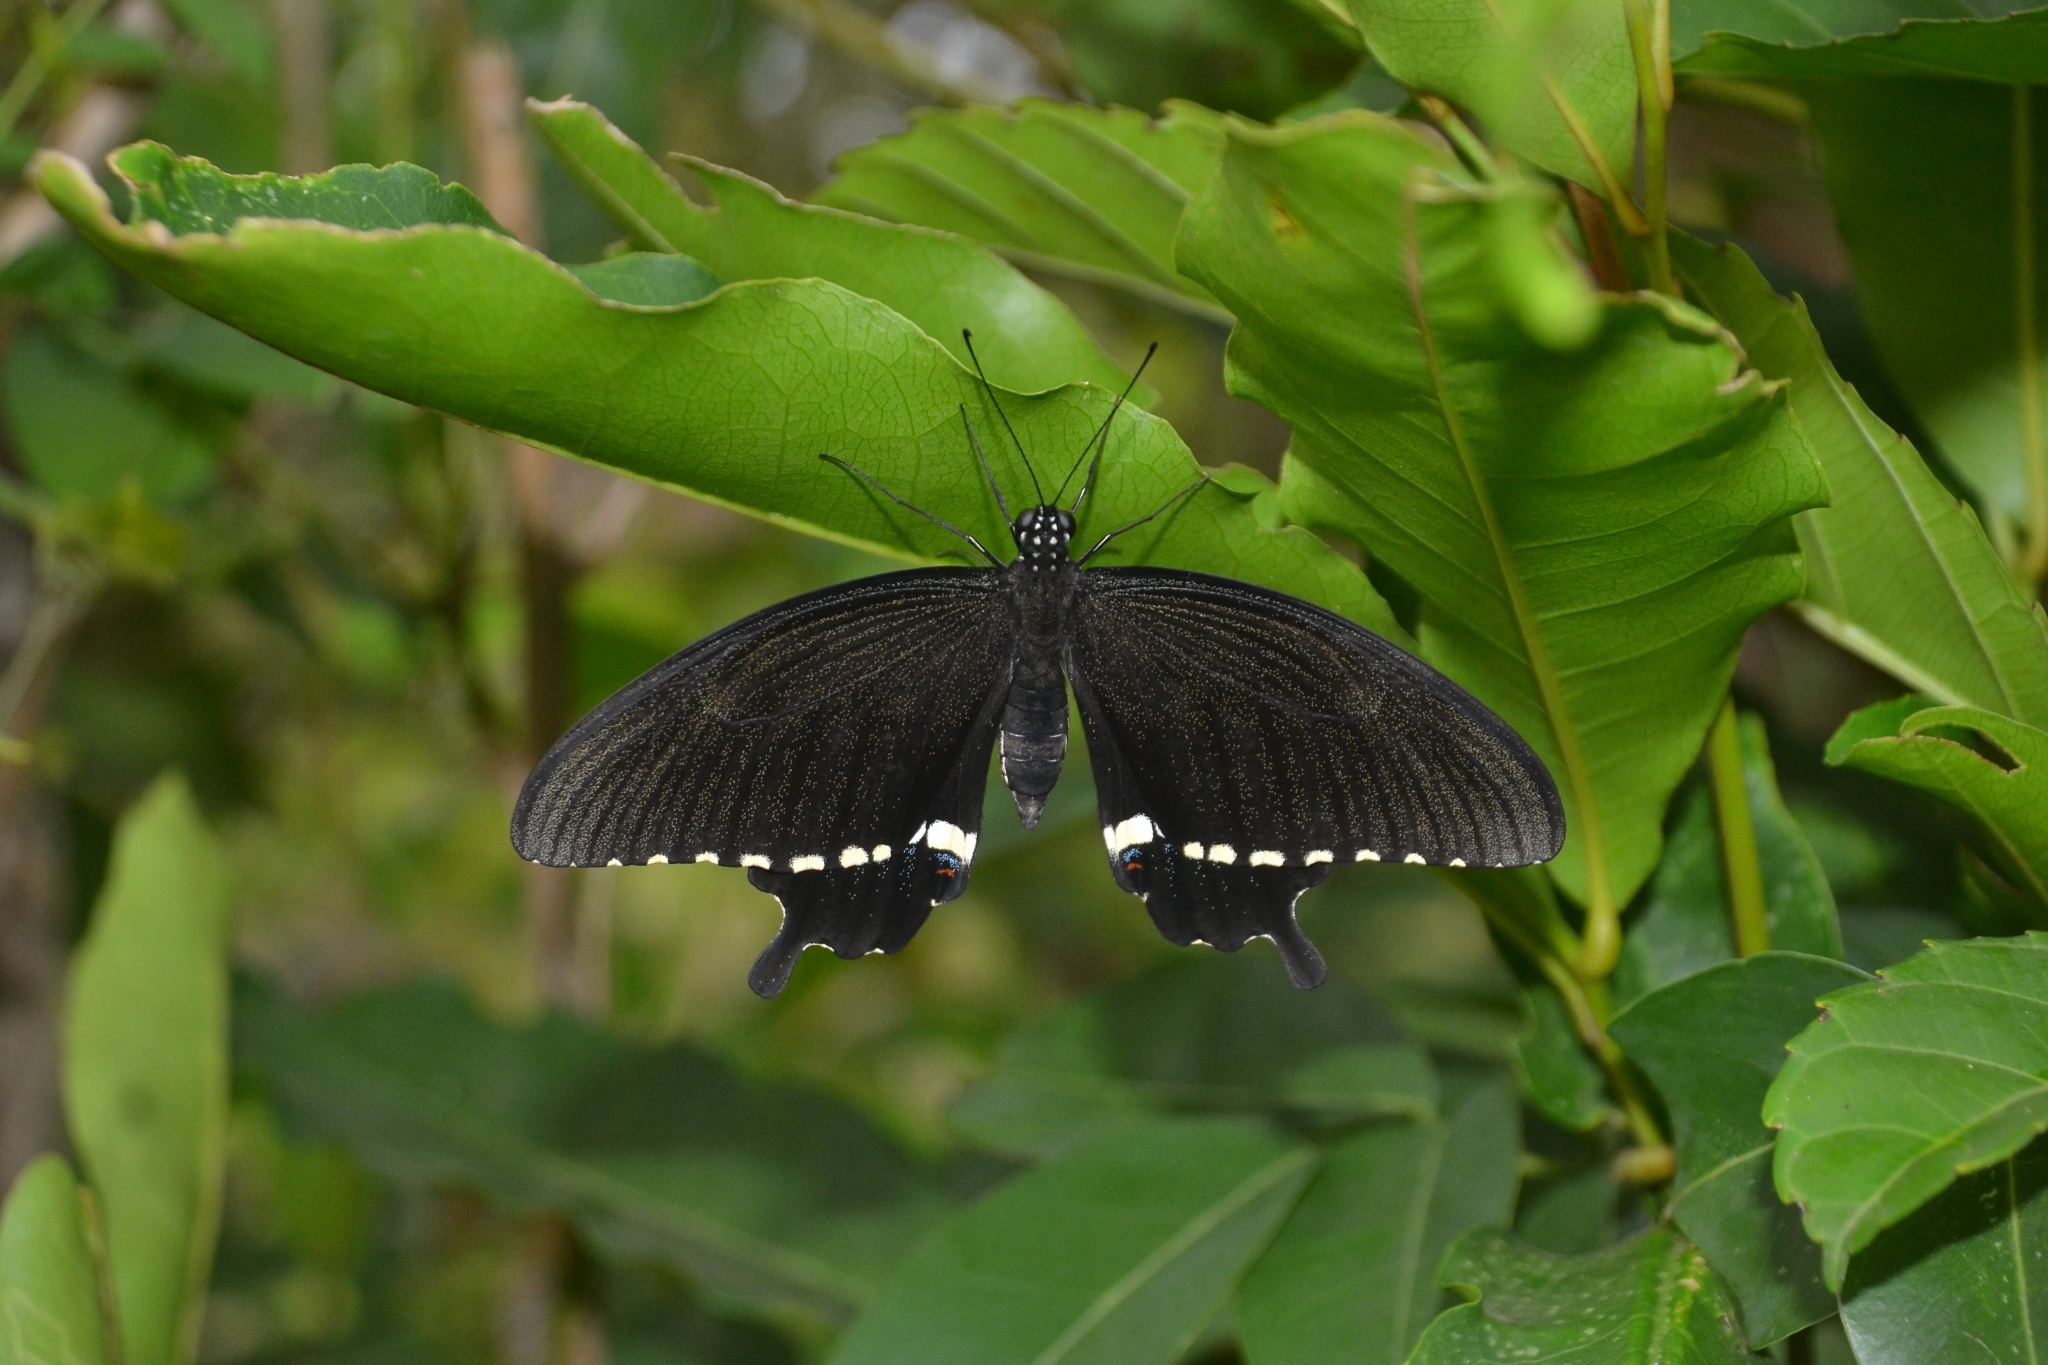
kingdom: Animalia
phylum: Arthropoda
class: Insecta
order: Lepidoptera
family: Papilionidae
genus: Papilio
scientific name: Papilio polytes
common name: Common mormon
